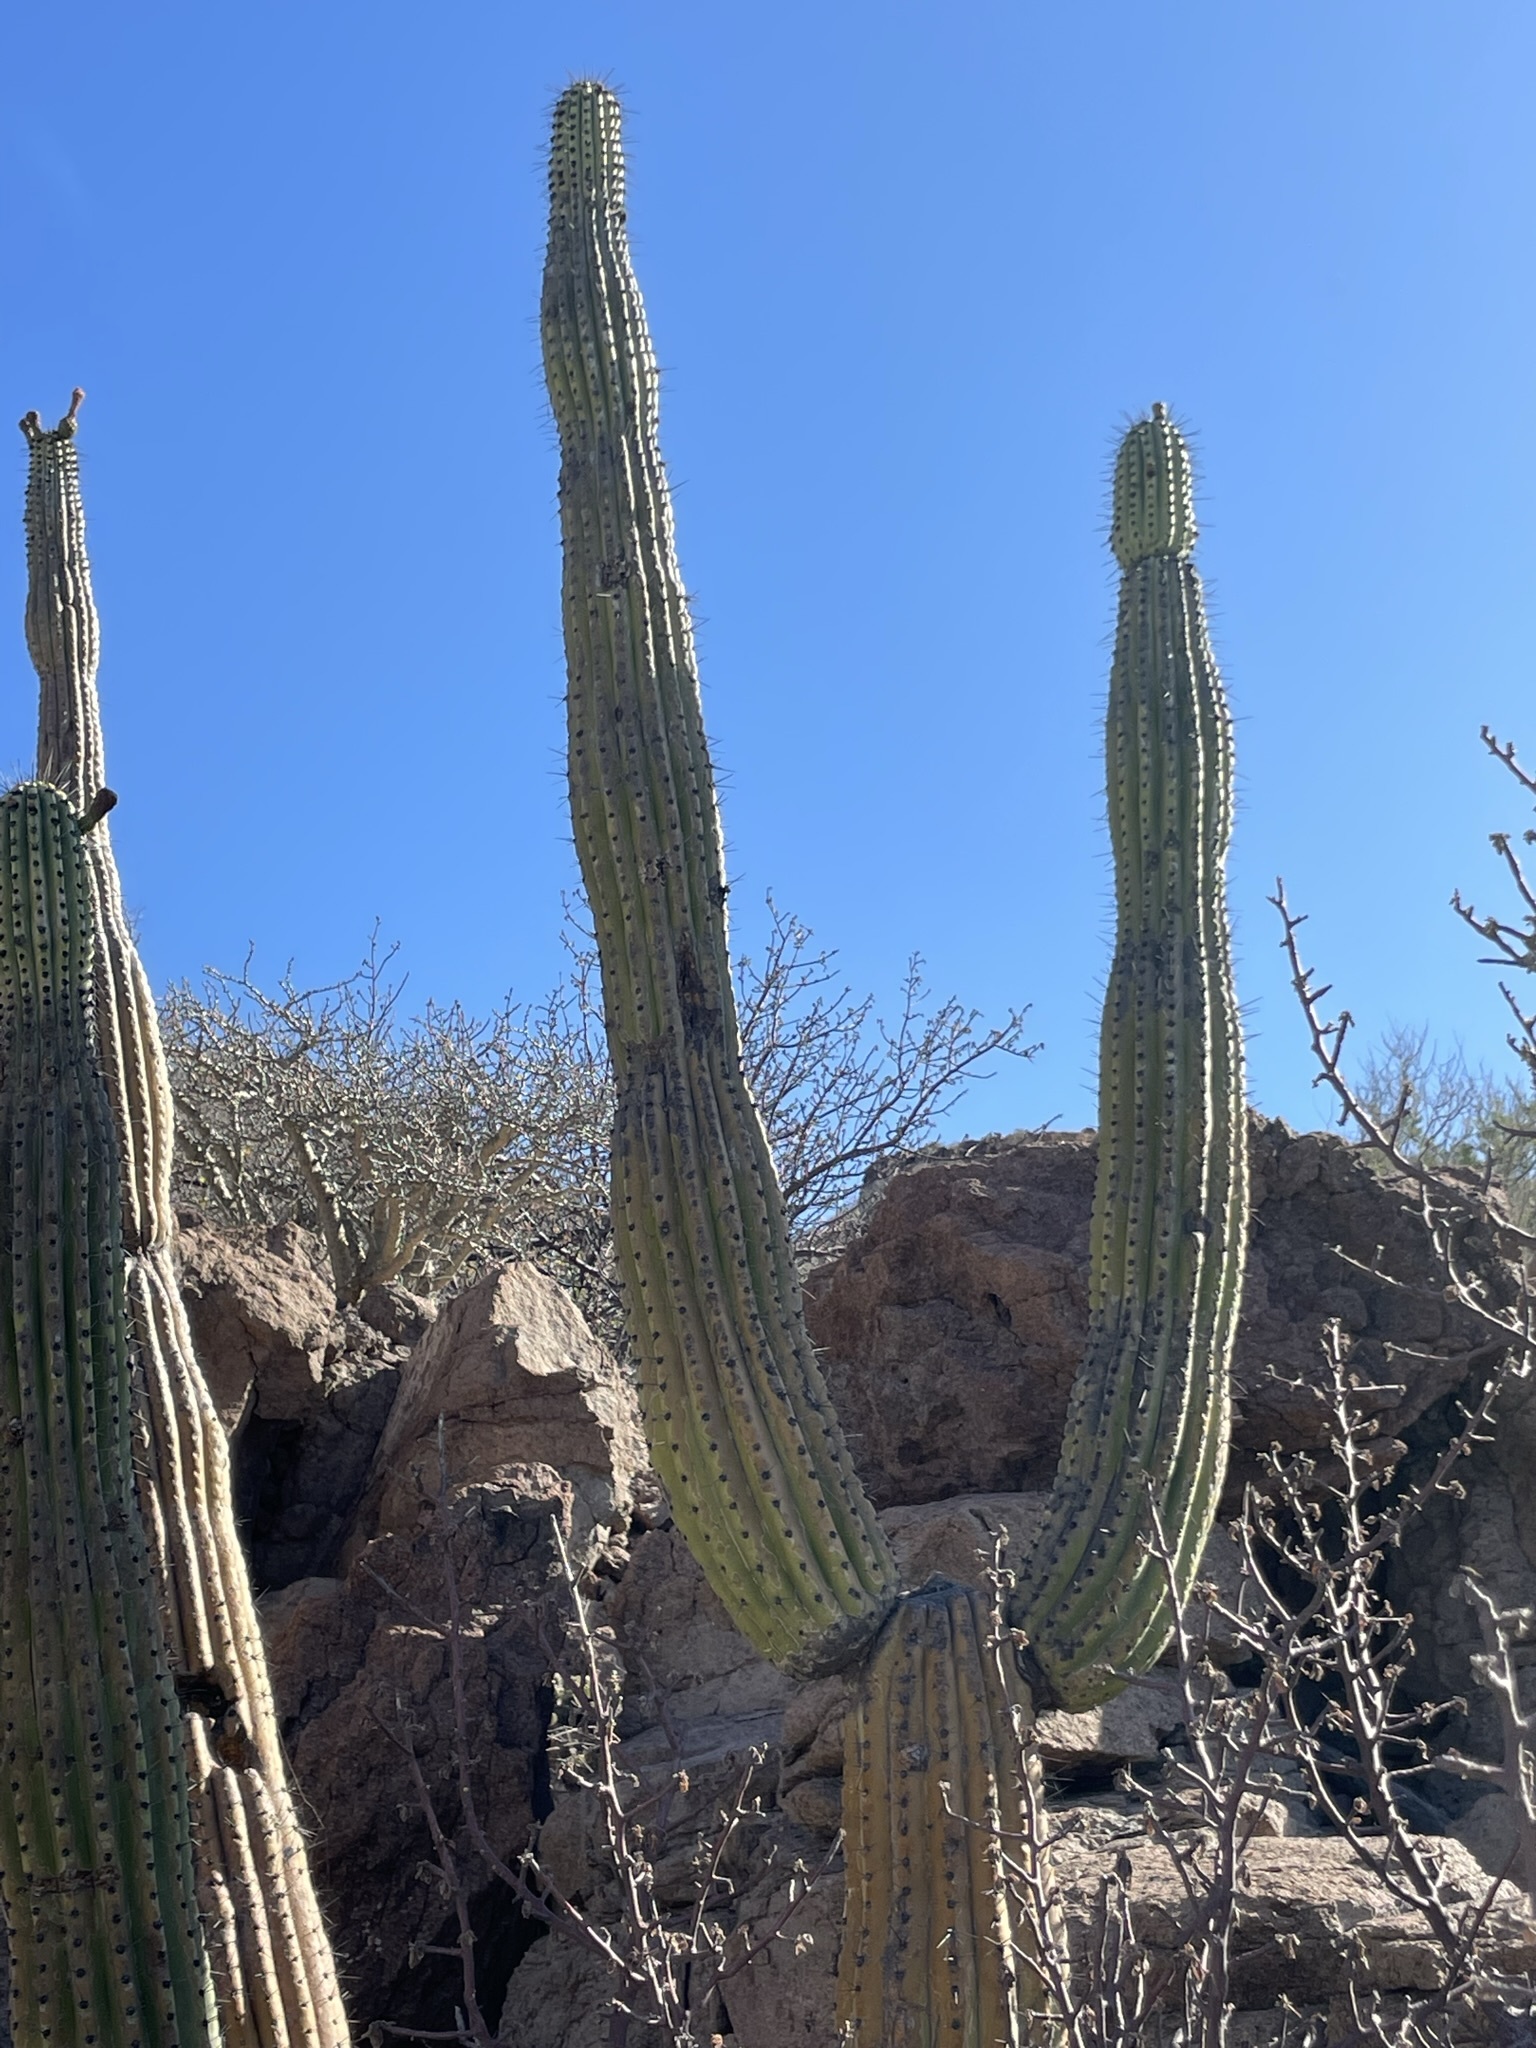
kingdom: Plantae
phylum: Tracheophyta
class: Magnoliopsida
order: Caryophyllales
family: Cactaceae
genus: Pachycereus
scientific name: Pachycereus pringlei
